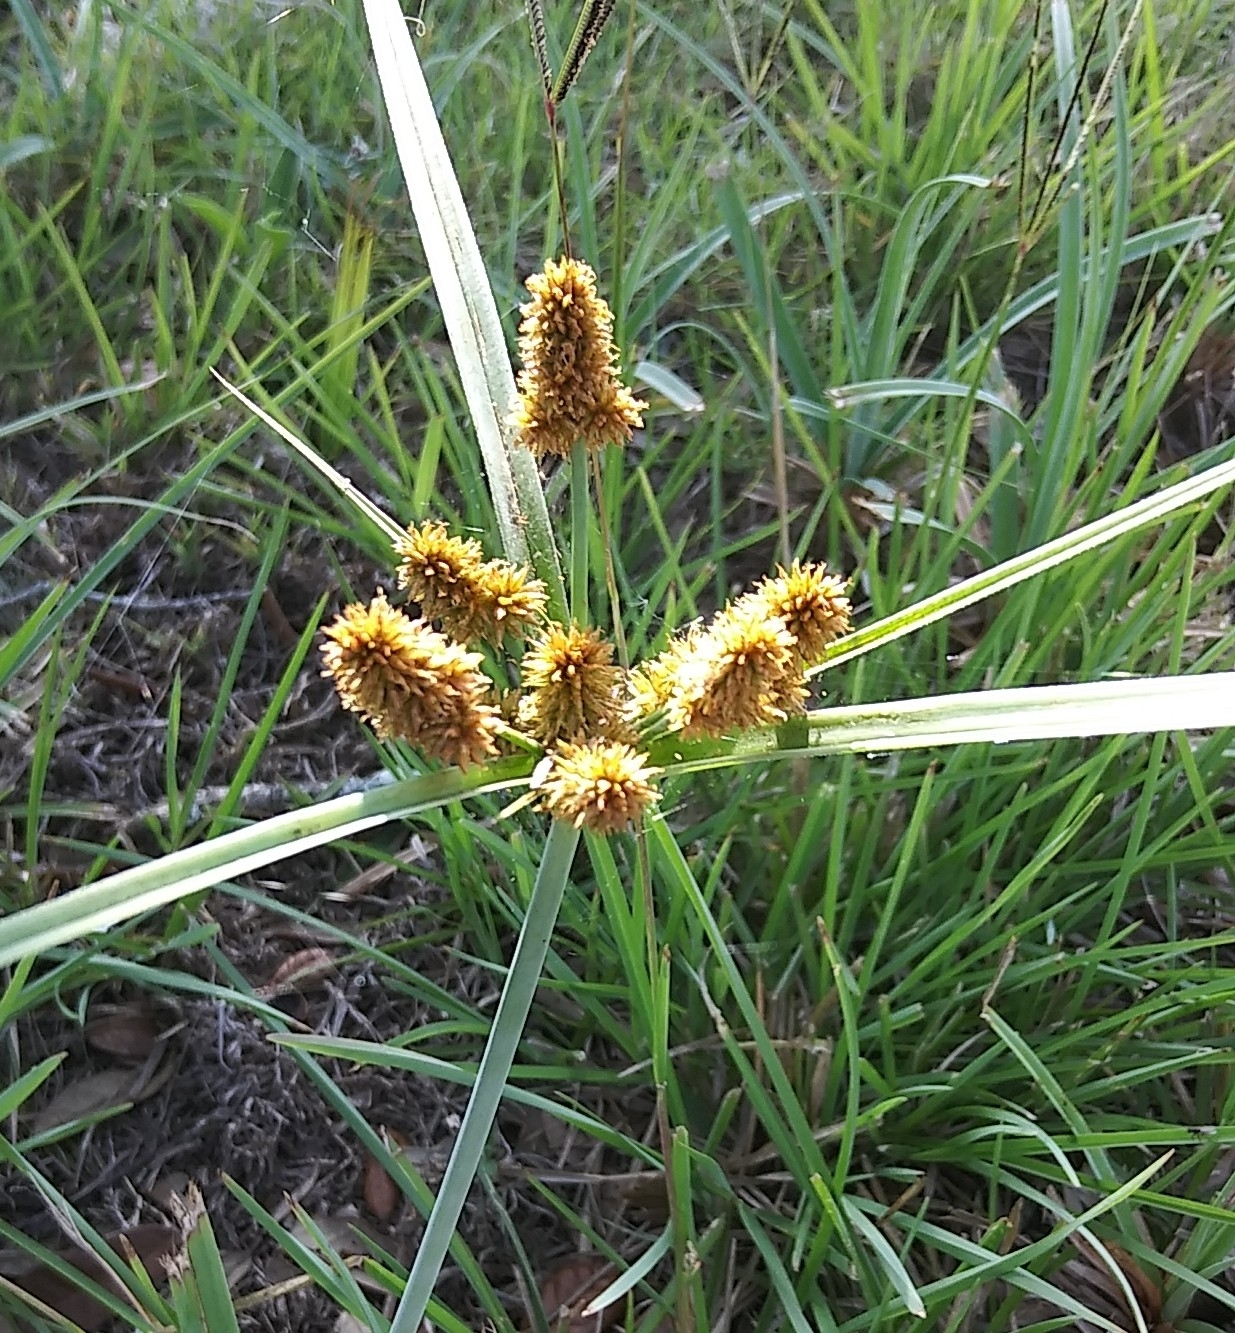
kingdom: Plantae
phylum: Tracheophyta
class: Liliopsida
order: Poales
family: Cyperaceae
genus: Cyperus
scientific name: Cyperus ligularis
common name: Swamp flat sedge
